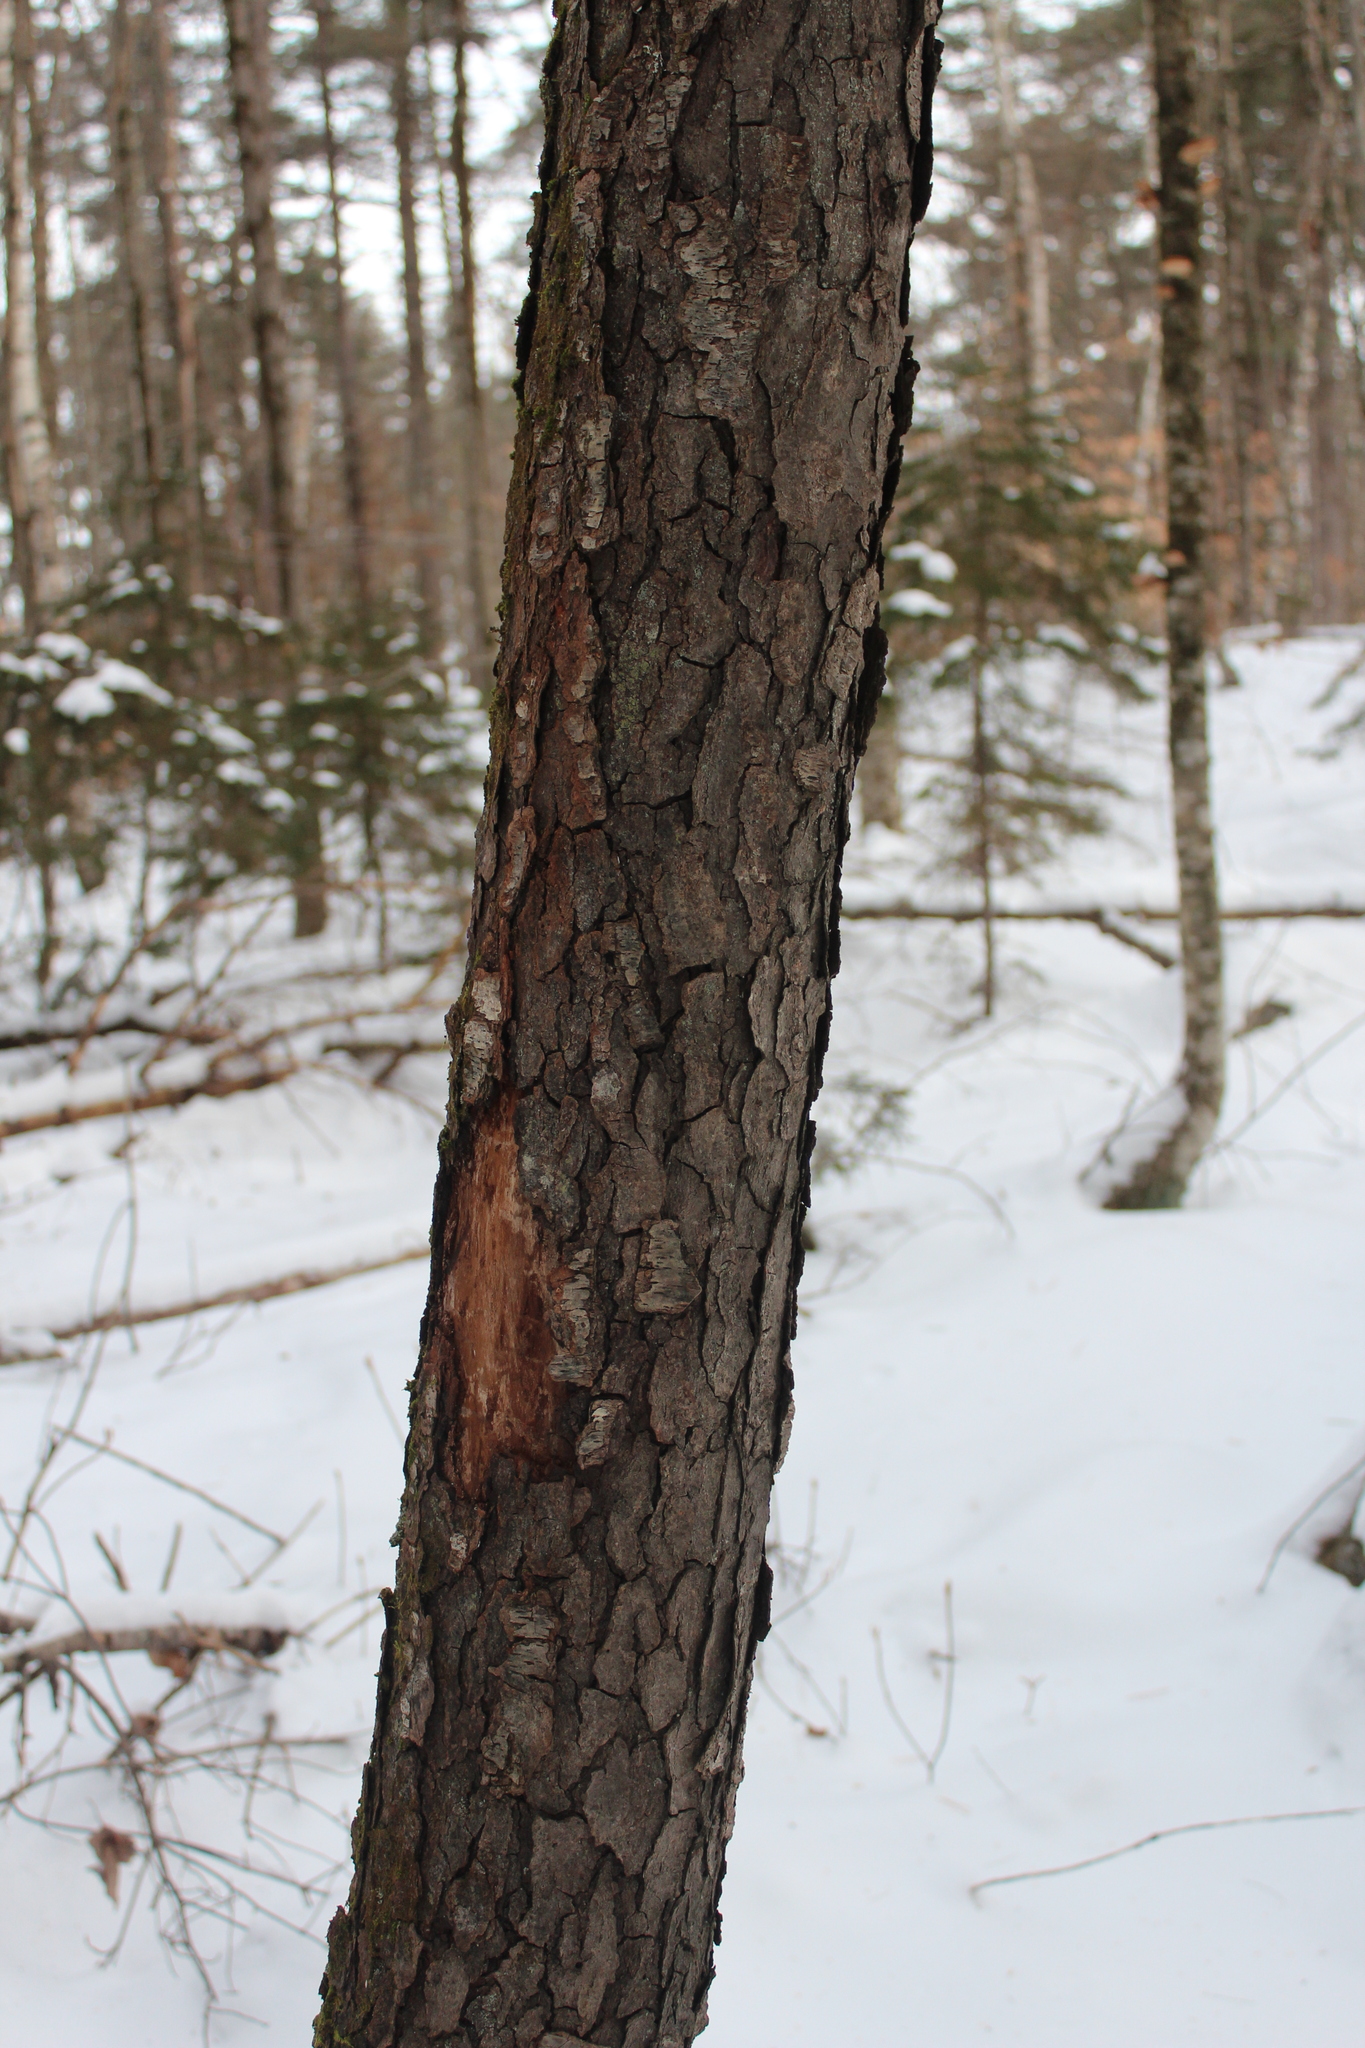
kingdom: Plantae
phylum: Tracheophyta
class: Magnoliopsida
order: Rosales
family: Rosaceae
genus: Prunus
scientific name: Prunus serotina
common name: Black cherry
